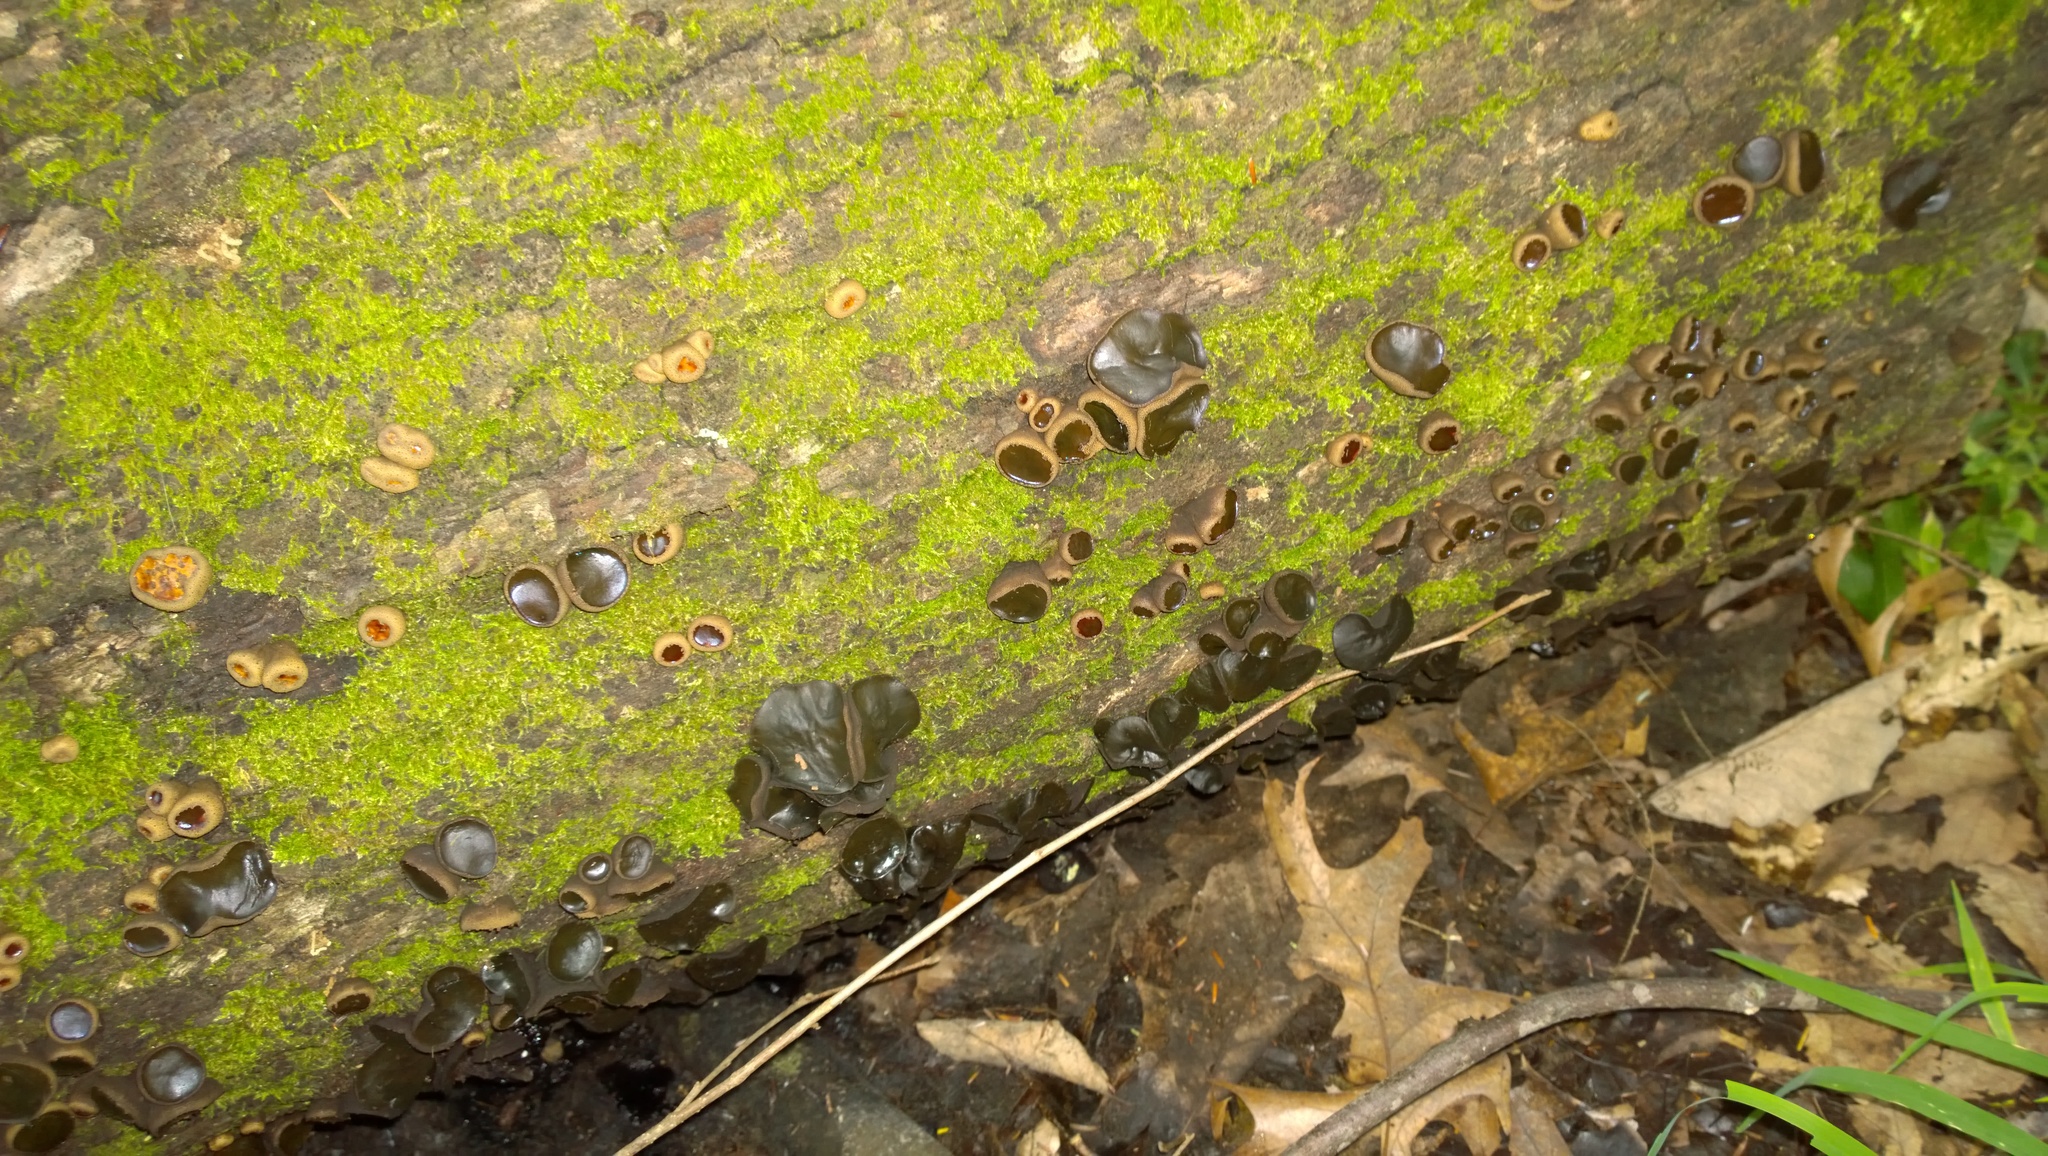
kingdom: Fungi
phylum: Ascomycota
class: Leotiomycetes
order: Phacidiales
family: Phacidiaceae
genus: Bulgaria
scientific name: Bulgaria inquinans
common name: Black bulgar
